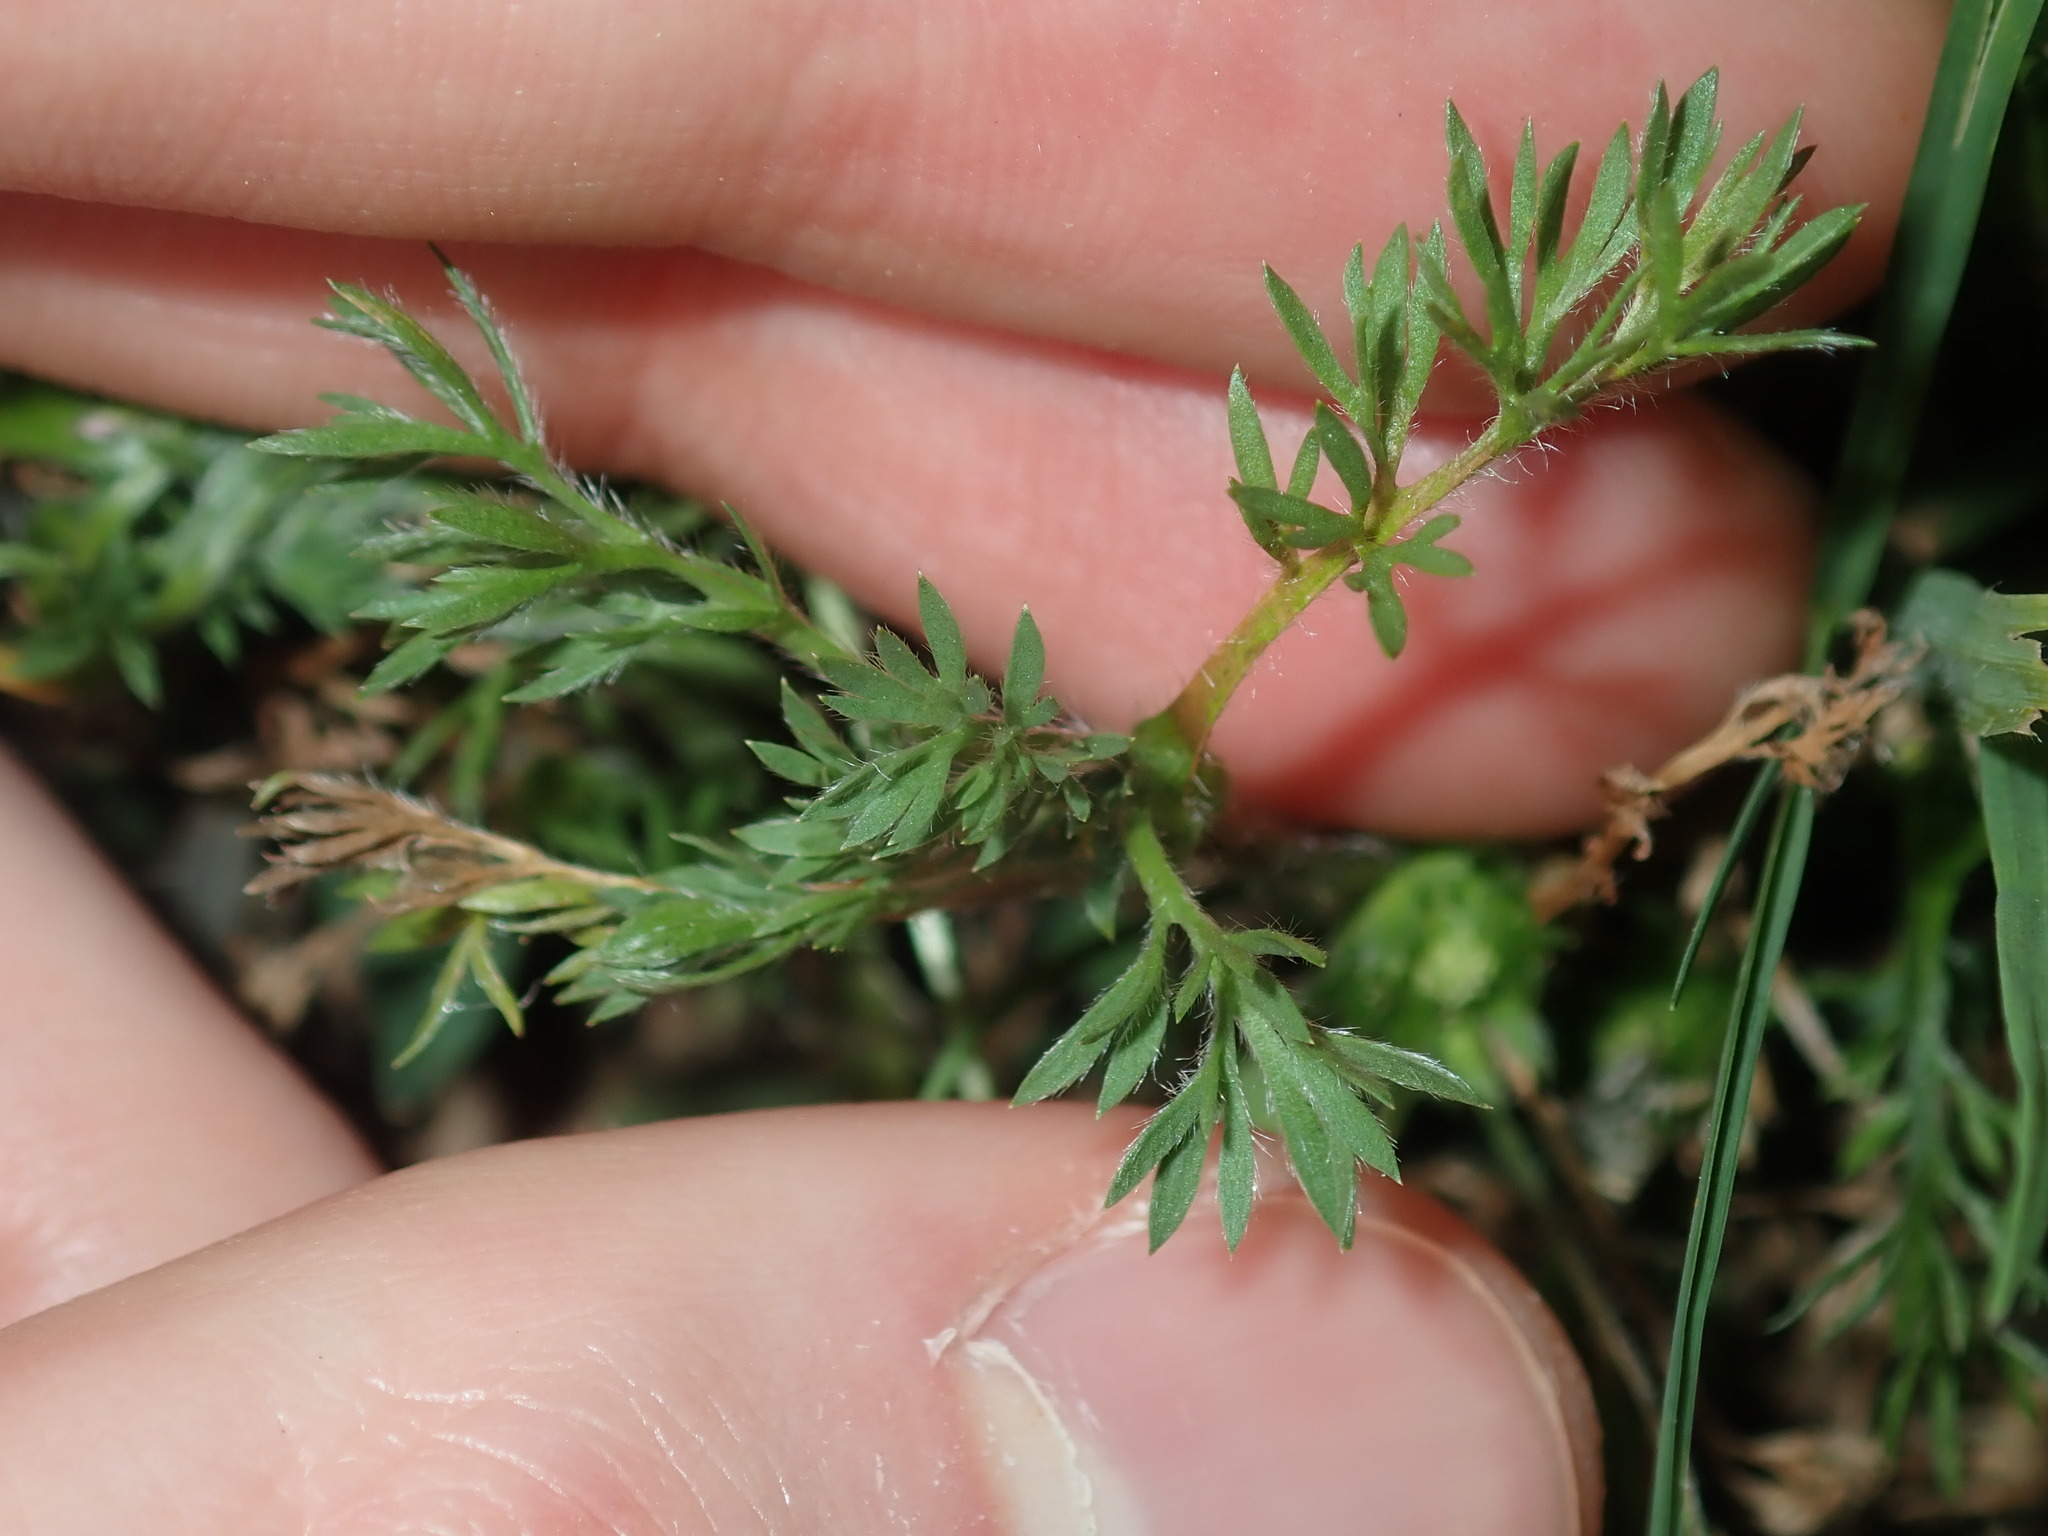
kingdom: Plantae
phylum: Tracheophyta
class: Magnoliopsida
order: Asterales
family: Asteraceae
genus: Soliva
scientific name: Soliva sessilis
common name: Field burrweed
